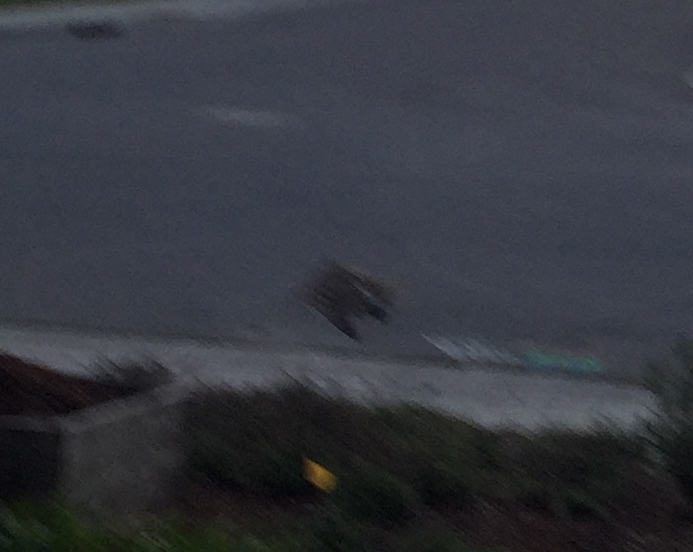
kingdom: Animalia
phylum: Chordata
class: Aves
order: Accipitriformes
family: Accipitridae
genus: Accipiter
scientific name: Accipiter cooperii
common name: Cooper's hawk
